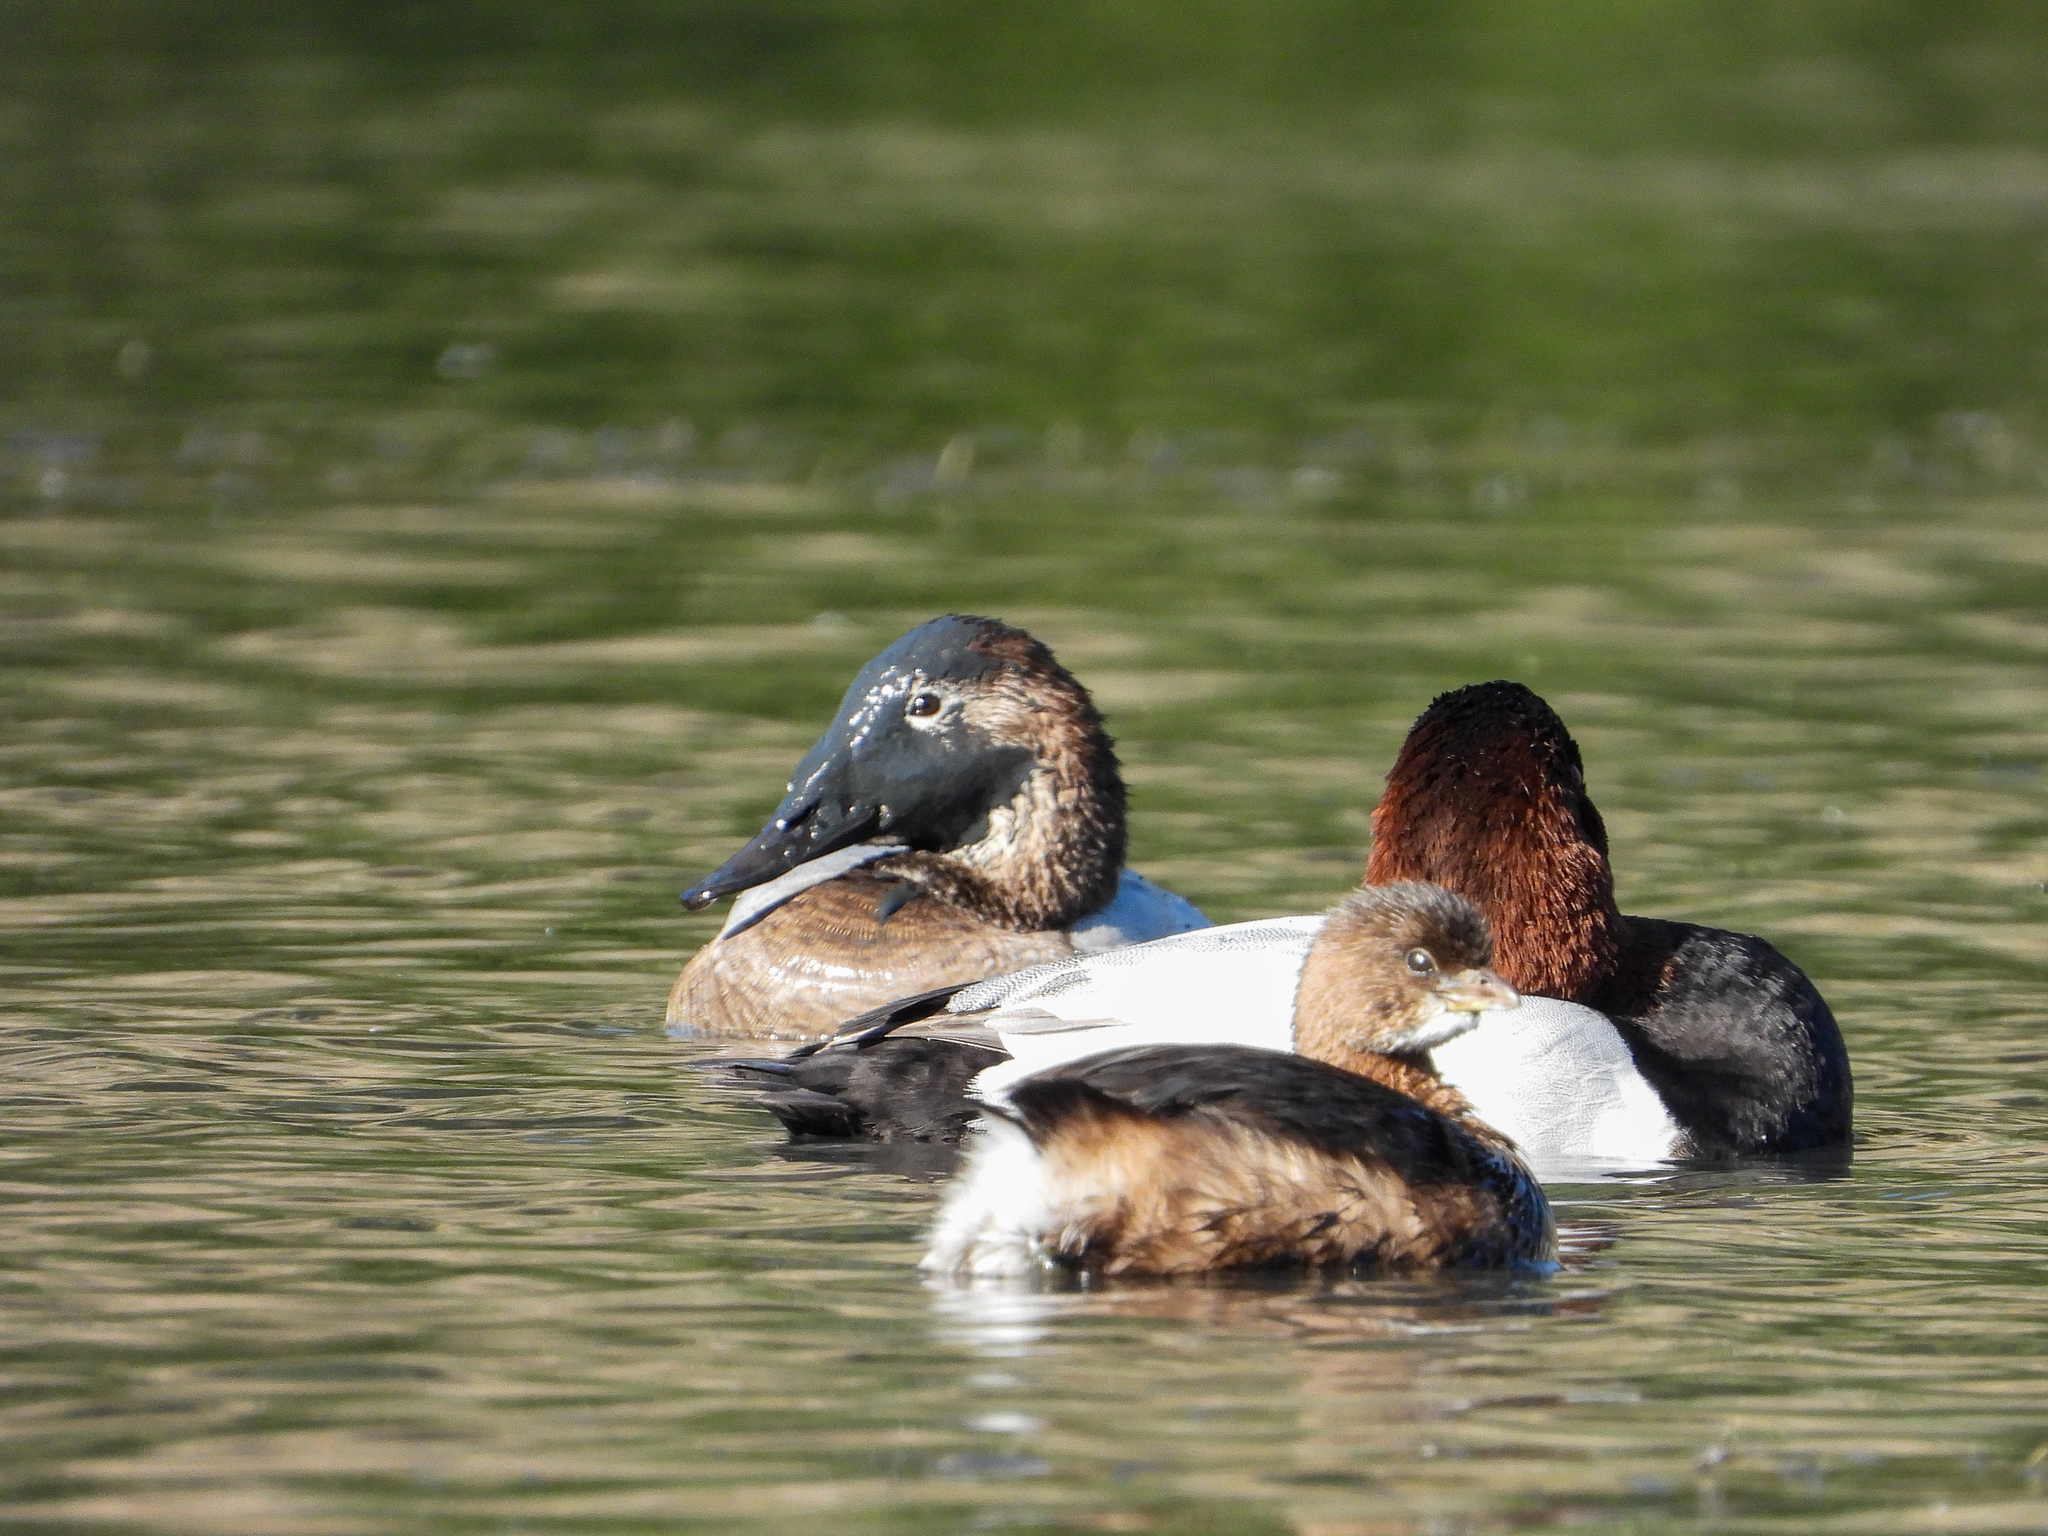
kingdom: Animalia
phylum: Chordata
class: Aves
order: Anseriformes
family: Anatidae
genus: Aythya
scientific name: Aythya valisineria
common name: Canvasback
